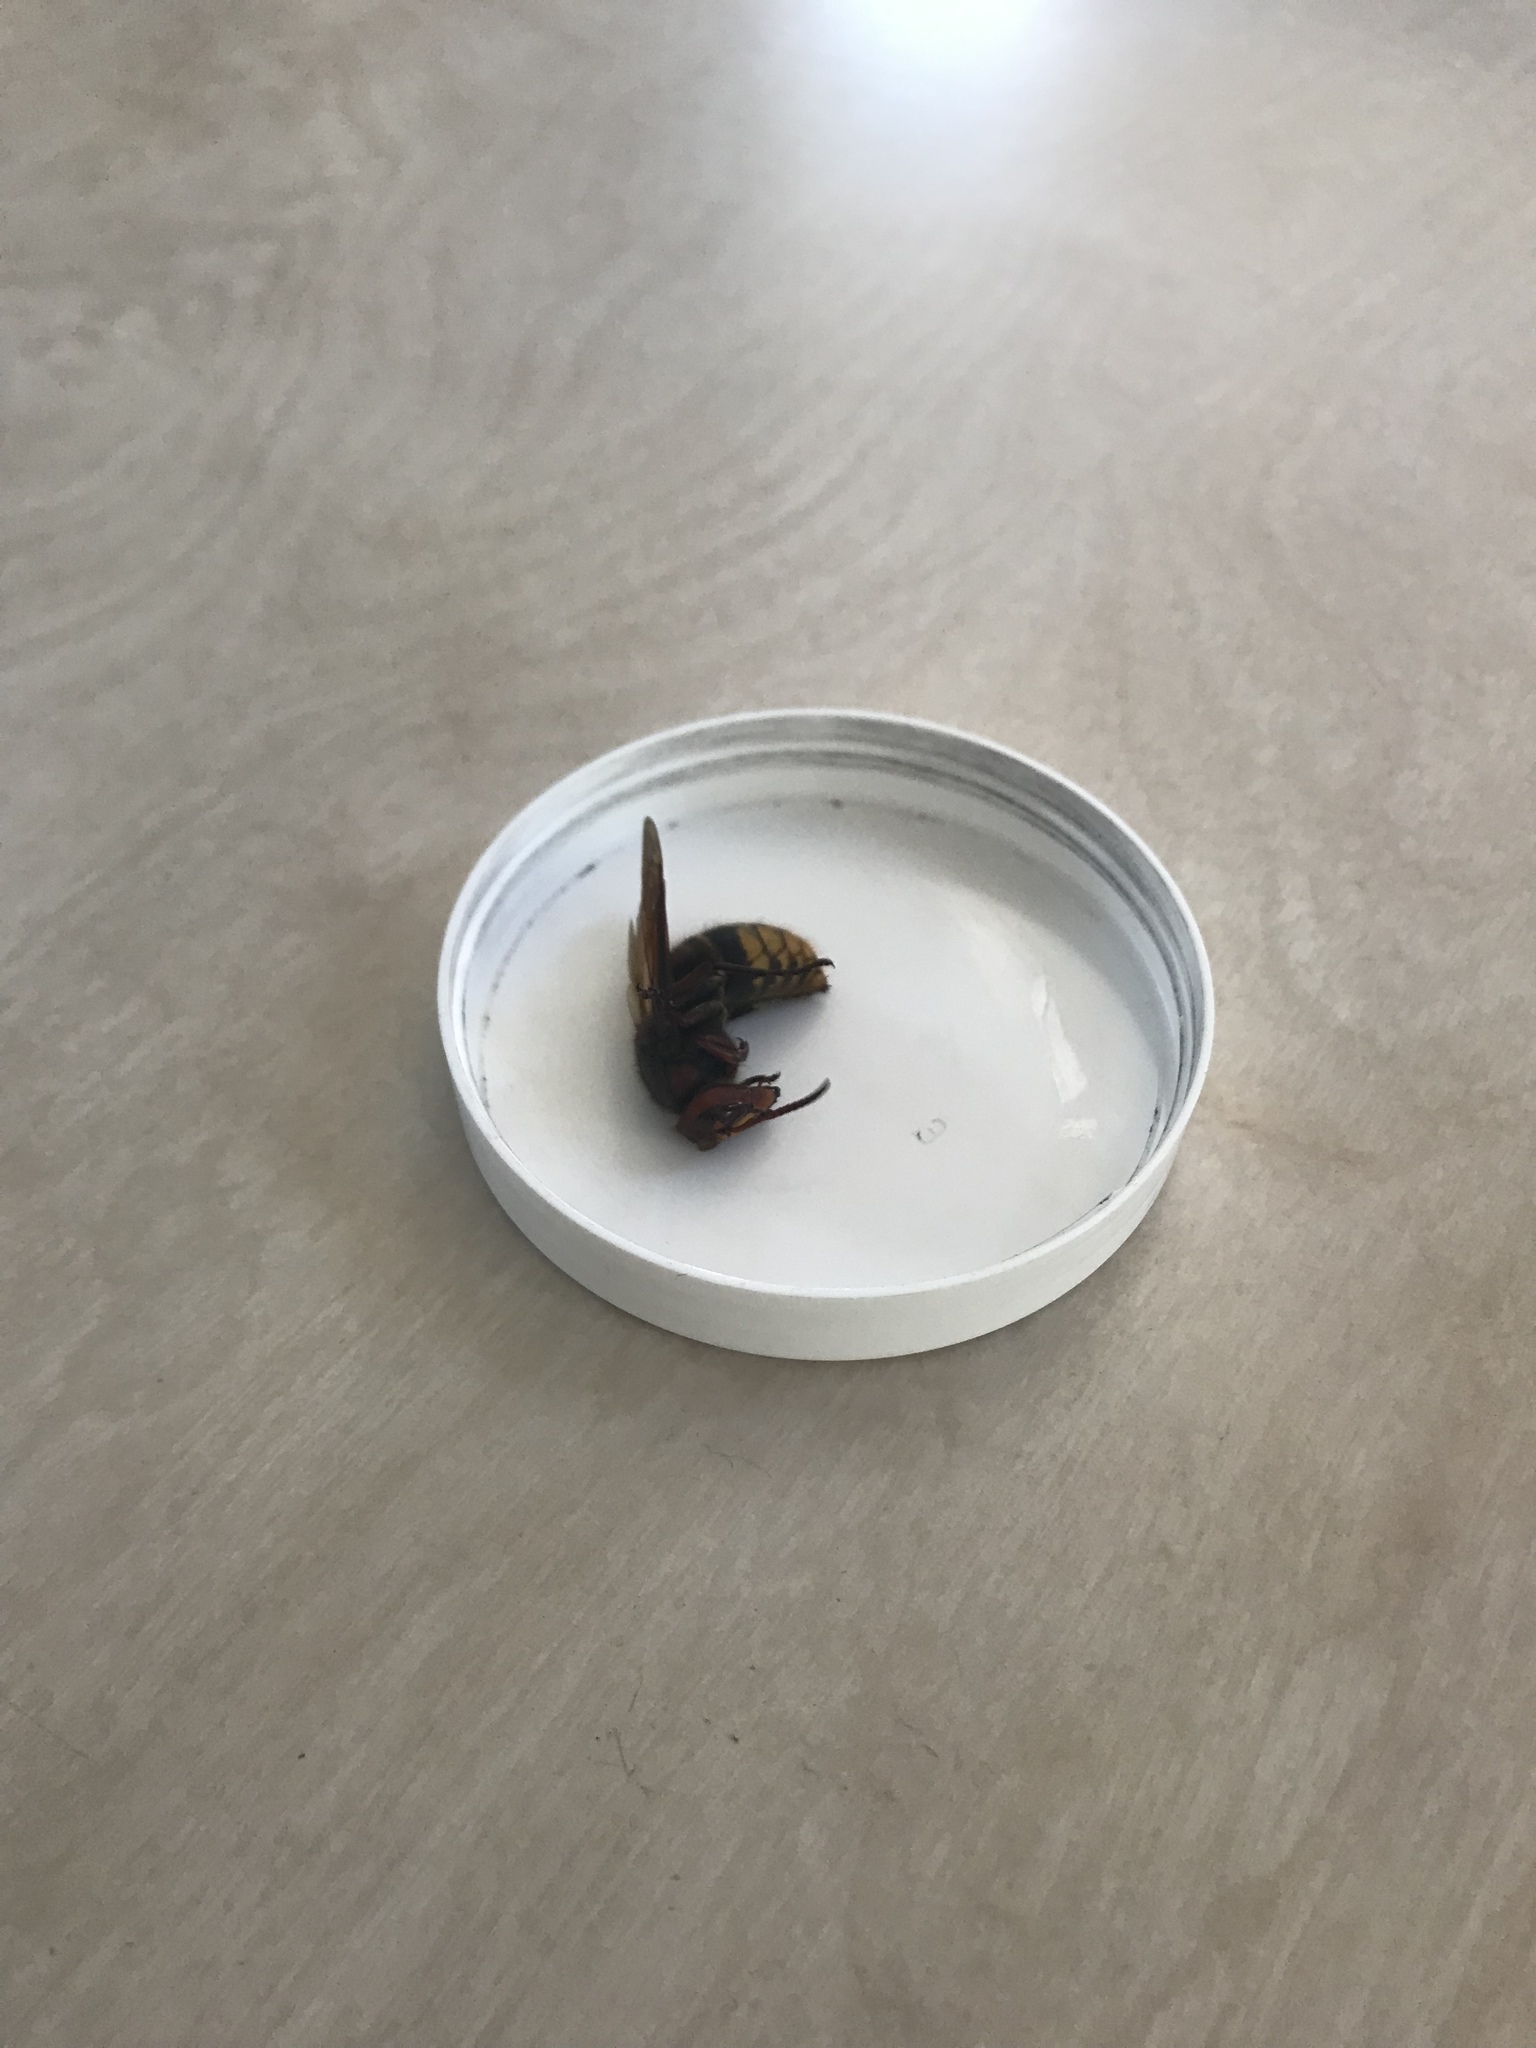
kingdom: Animalia
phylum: Arthropoda
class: Insecta
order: Hymenoptera
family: Vespidae
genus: Vespa
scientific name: Vespa crabro
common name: Hornet
